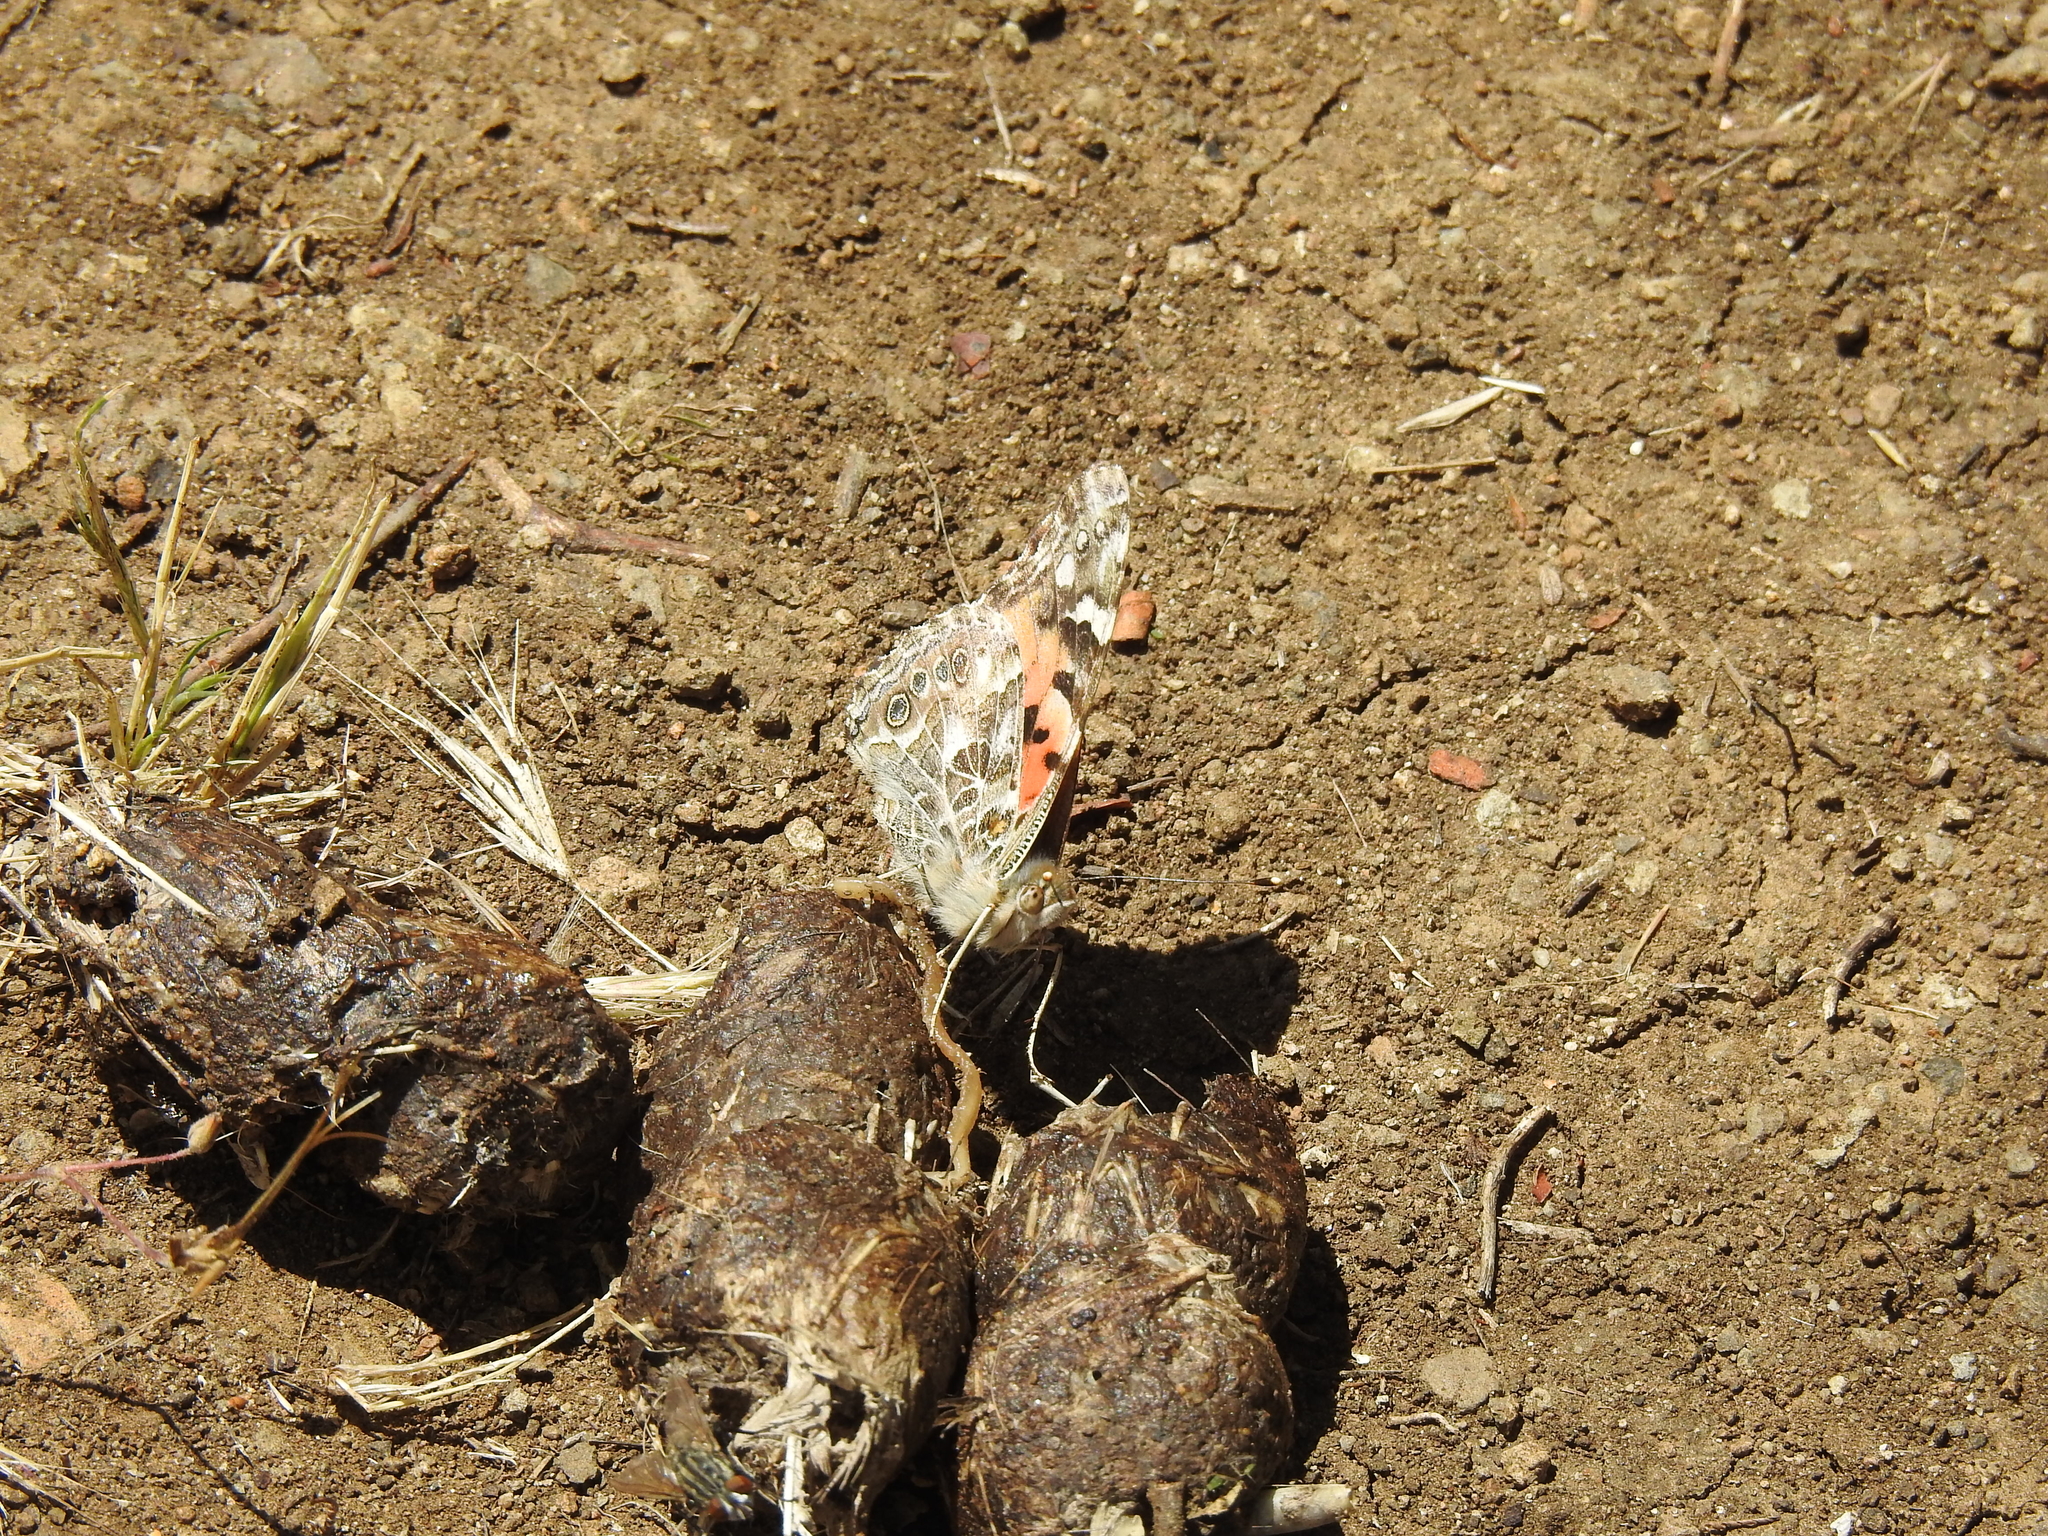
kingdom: Animalia
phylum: Arthropoda
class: Insecta
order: Lepidoptera
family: Nymphalidae
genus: Vanessa
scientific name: Vanessa cardui
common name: Painted lady
